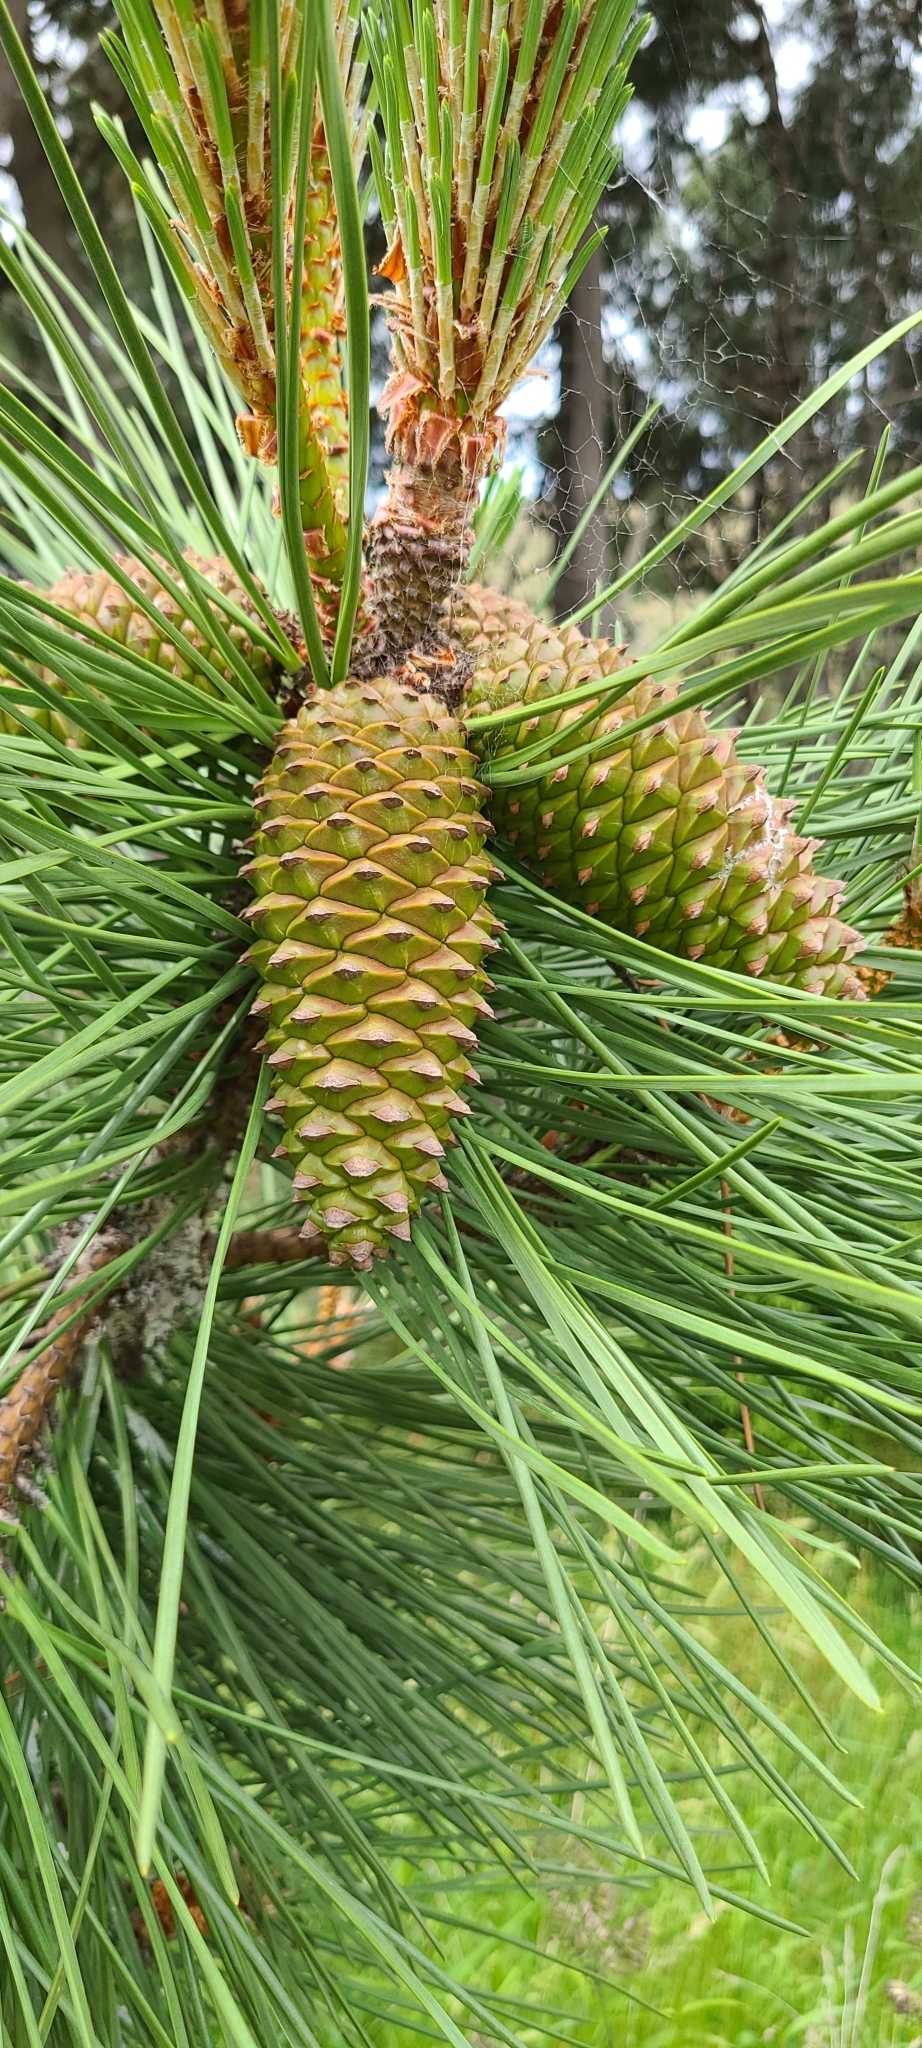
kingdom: Plantae
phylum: Tracheophyta
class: Pinopsida
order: Pinales
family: Pinaceae
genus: Pinus
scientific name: Pinus pinaster
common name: Maritime pine
